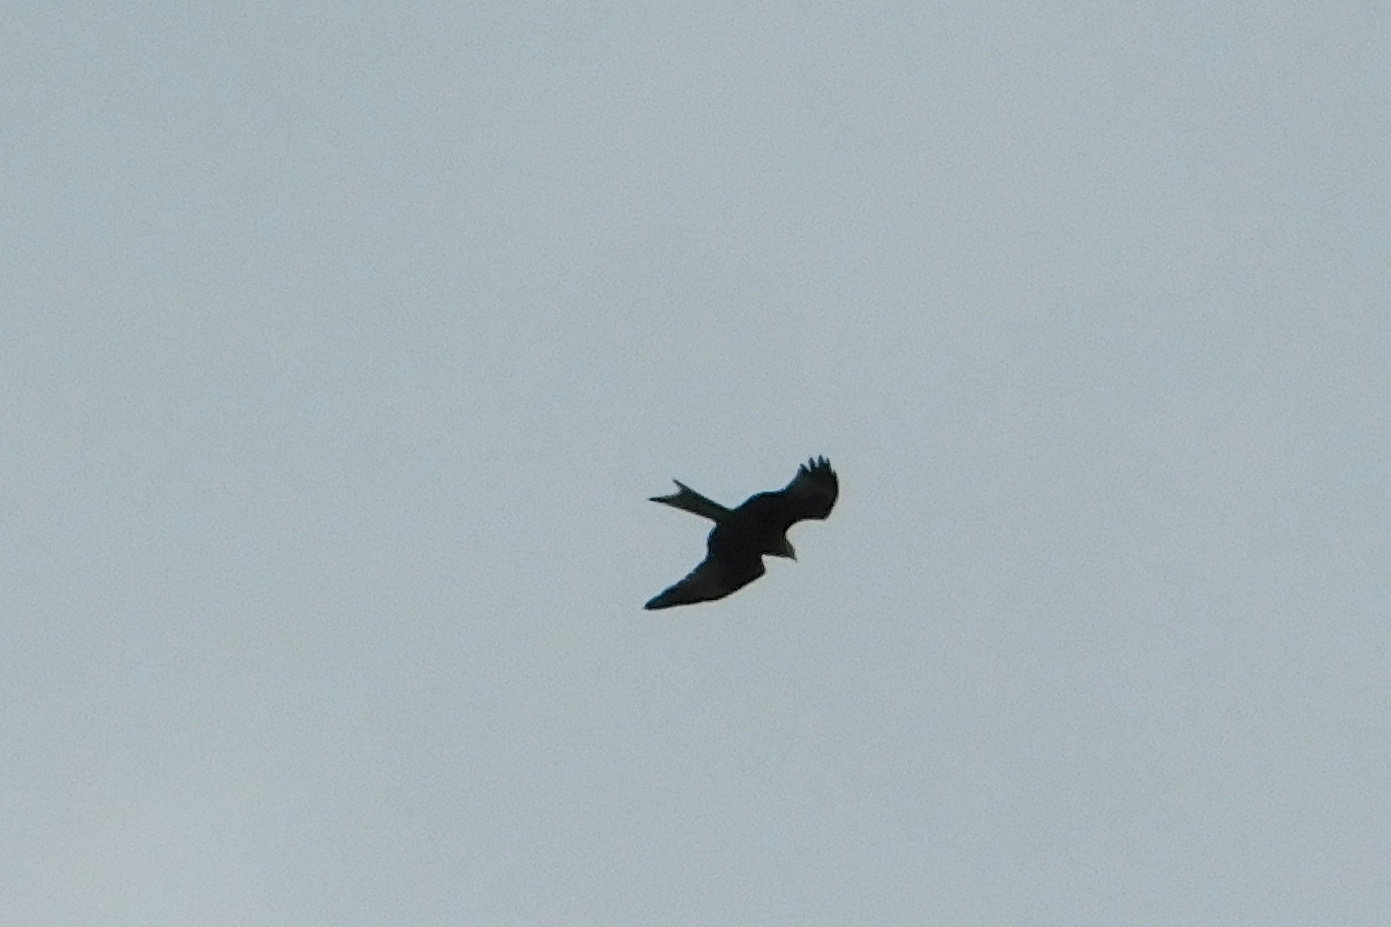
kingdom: Animalia
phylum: Chordata
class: Aves
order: Accipitriformes
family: Accipitridae
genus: Milvus
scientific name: Milvus milvus
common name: Red kite
